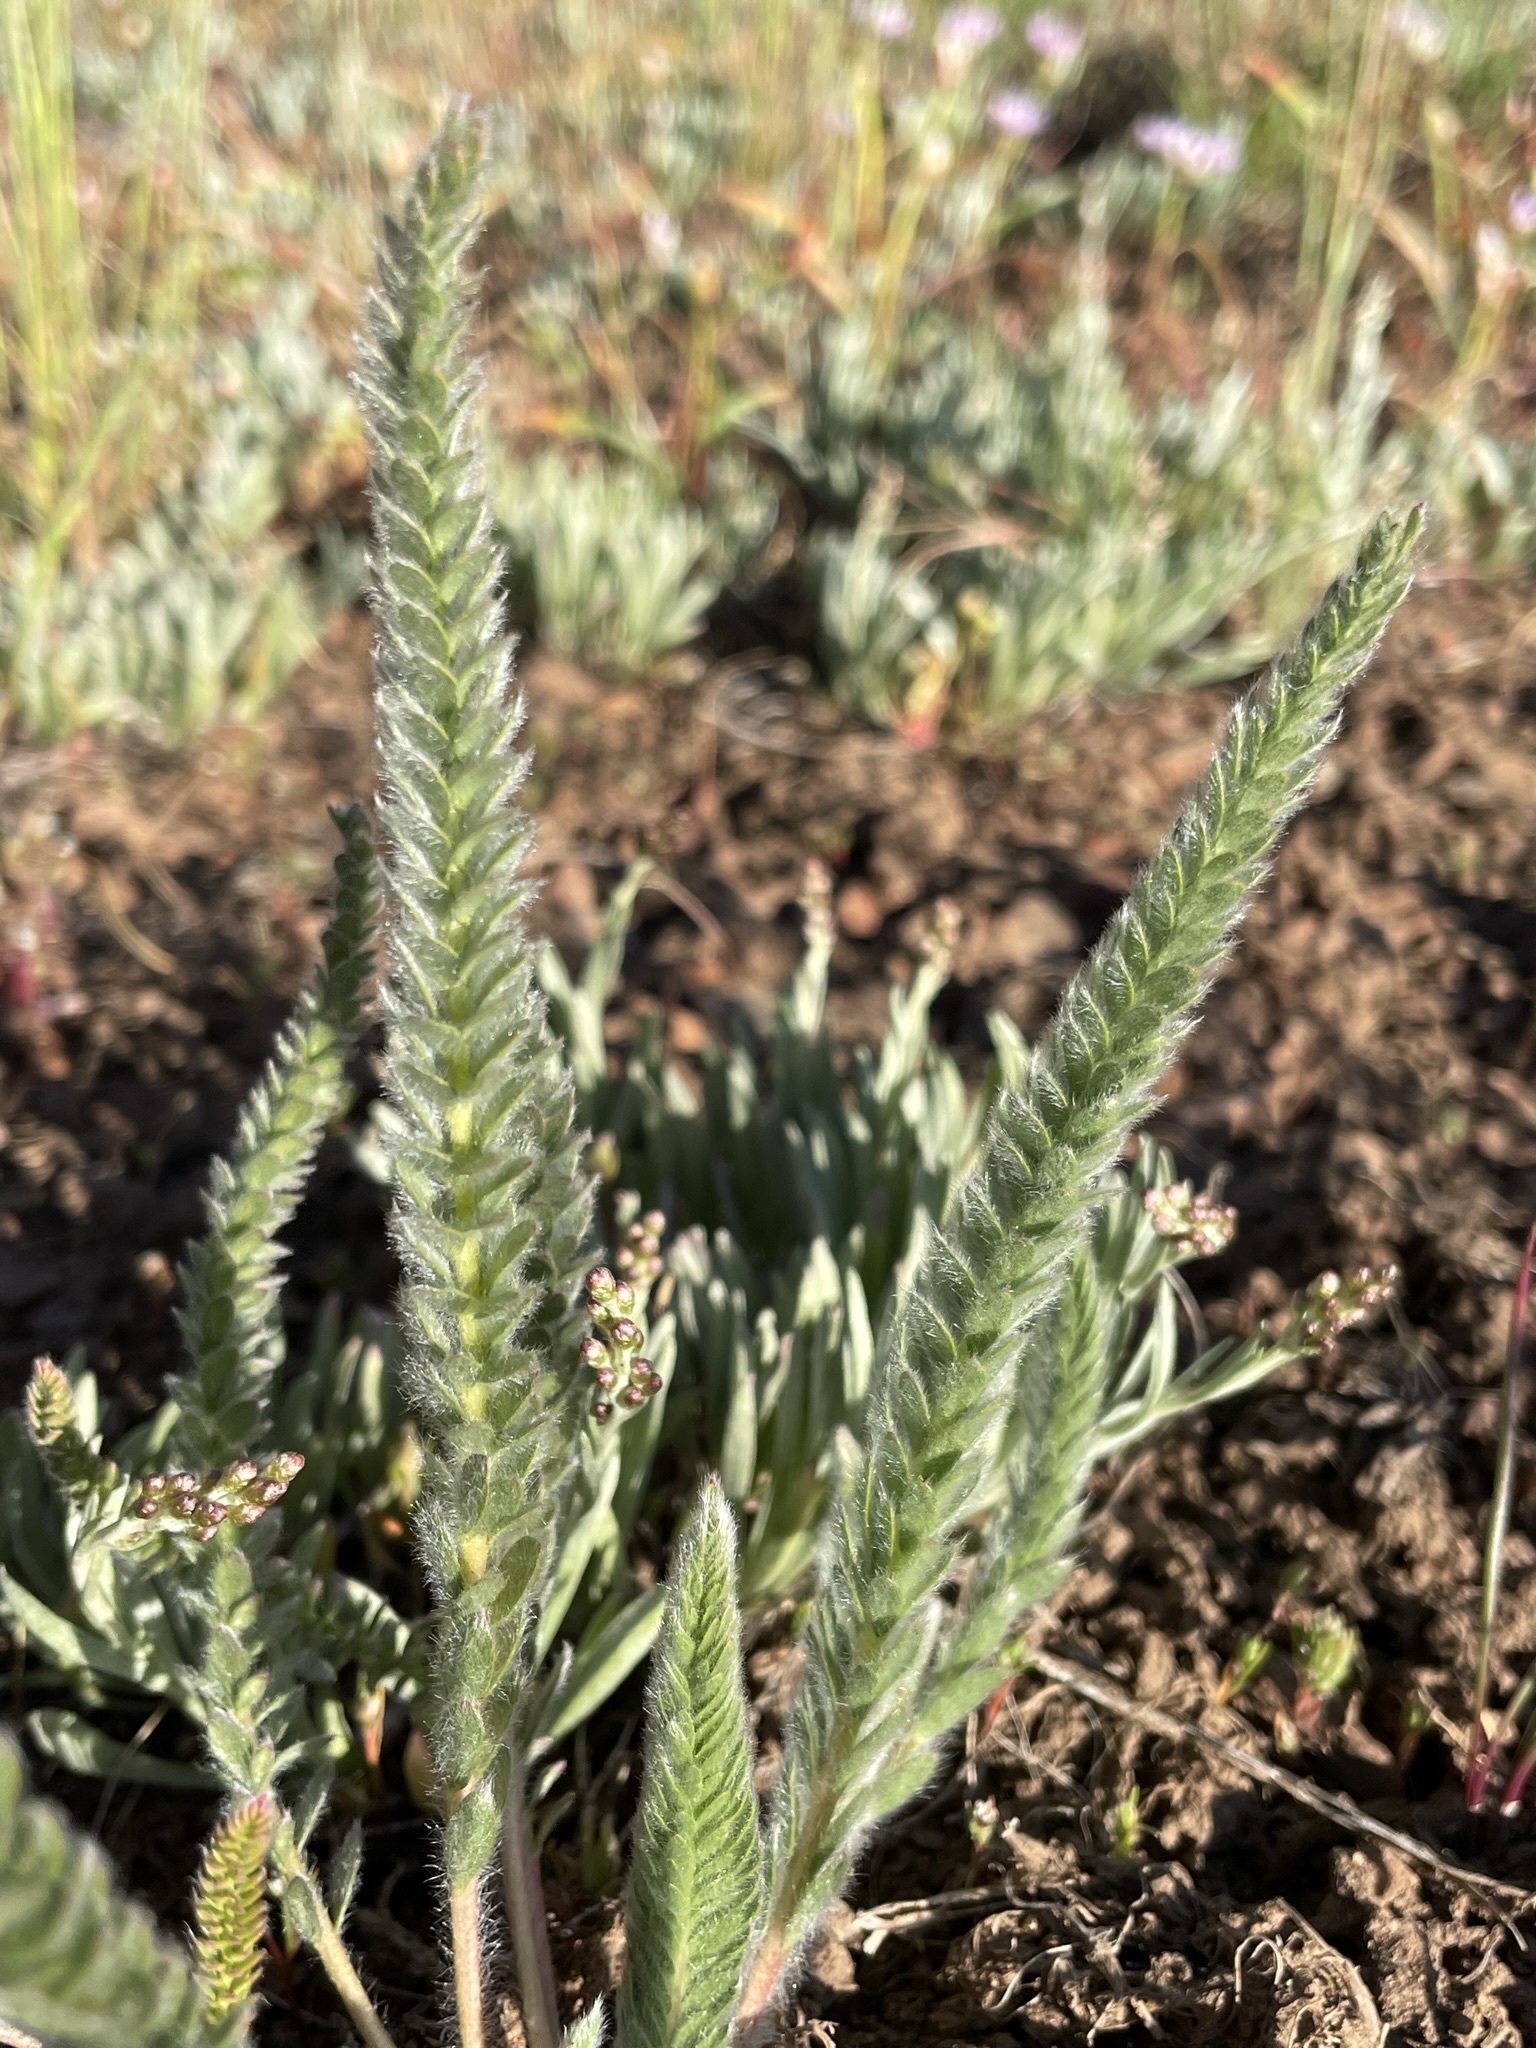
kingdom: Plantae
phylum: Tracheophyta
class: Magnoliopsida
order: Rosales
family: Rosaceae
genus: Potentilla
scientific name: Potentilla sericoleuca
